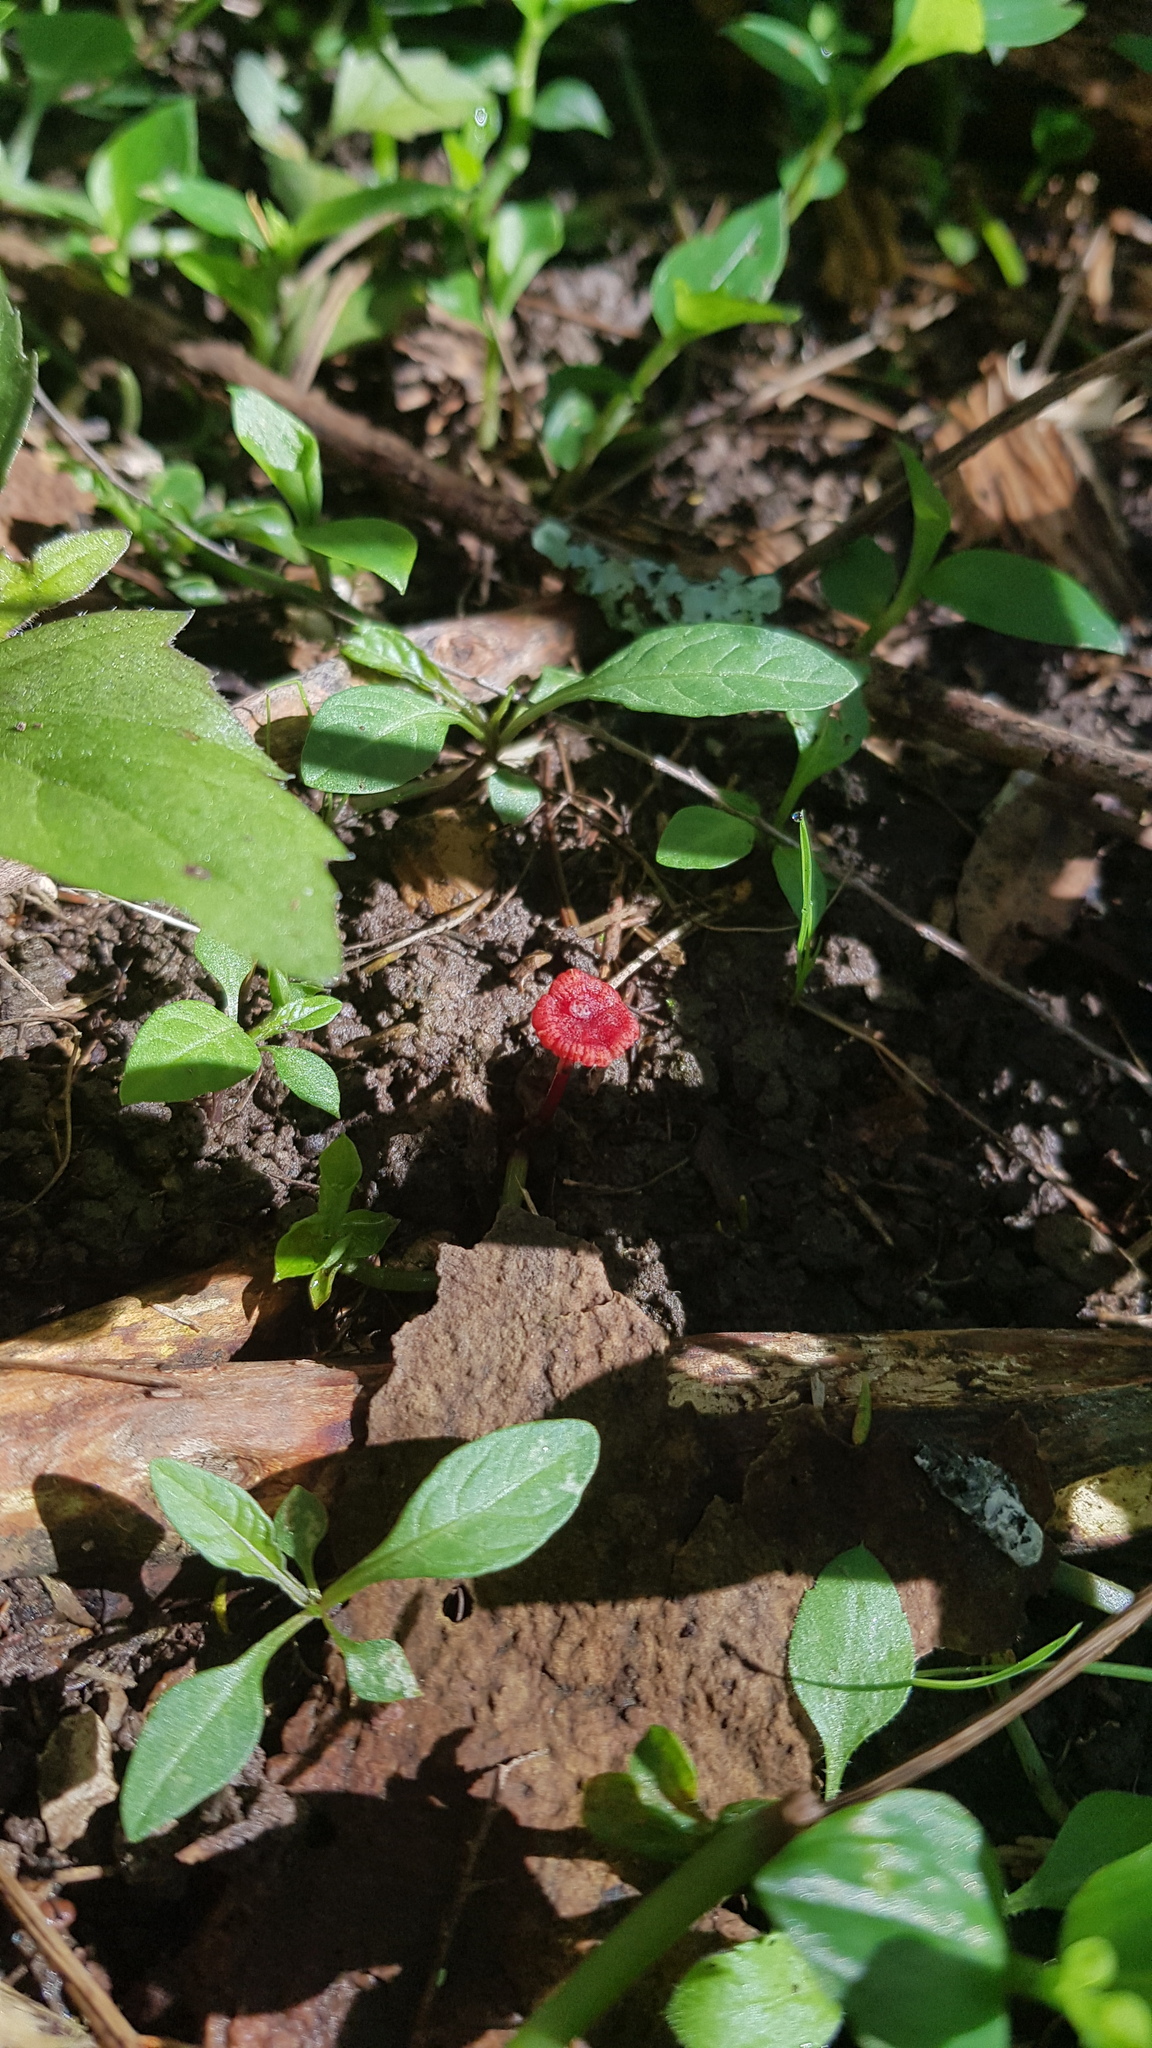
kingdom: Fungi
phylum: Basidiomycota
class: Agaricomycetes
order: Agaricales
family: Mycenaceae
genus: Cruentomycena
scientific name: Cruentomycena viscidocruenta
